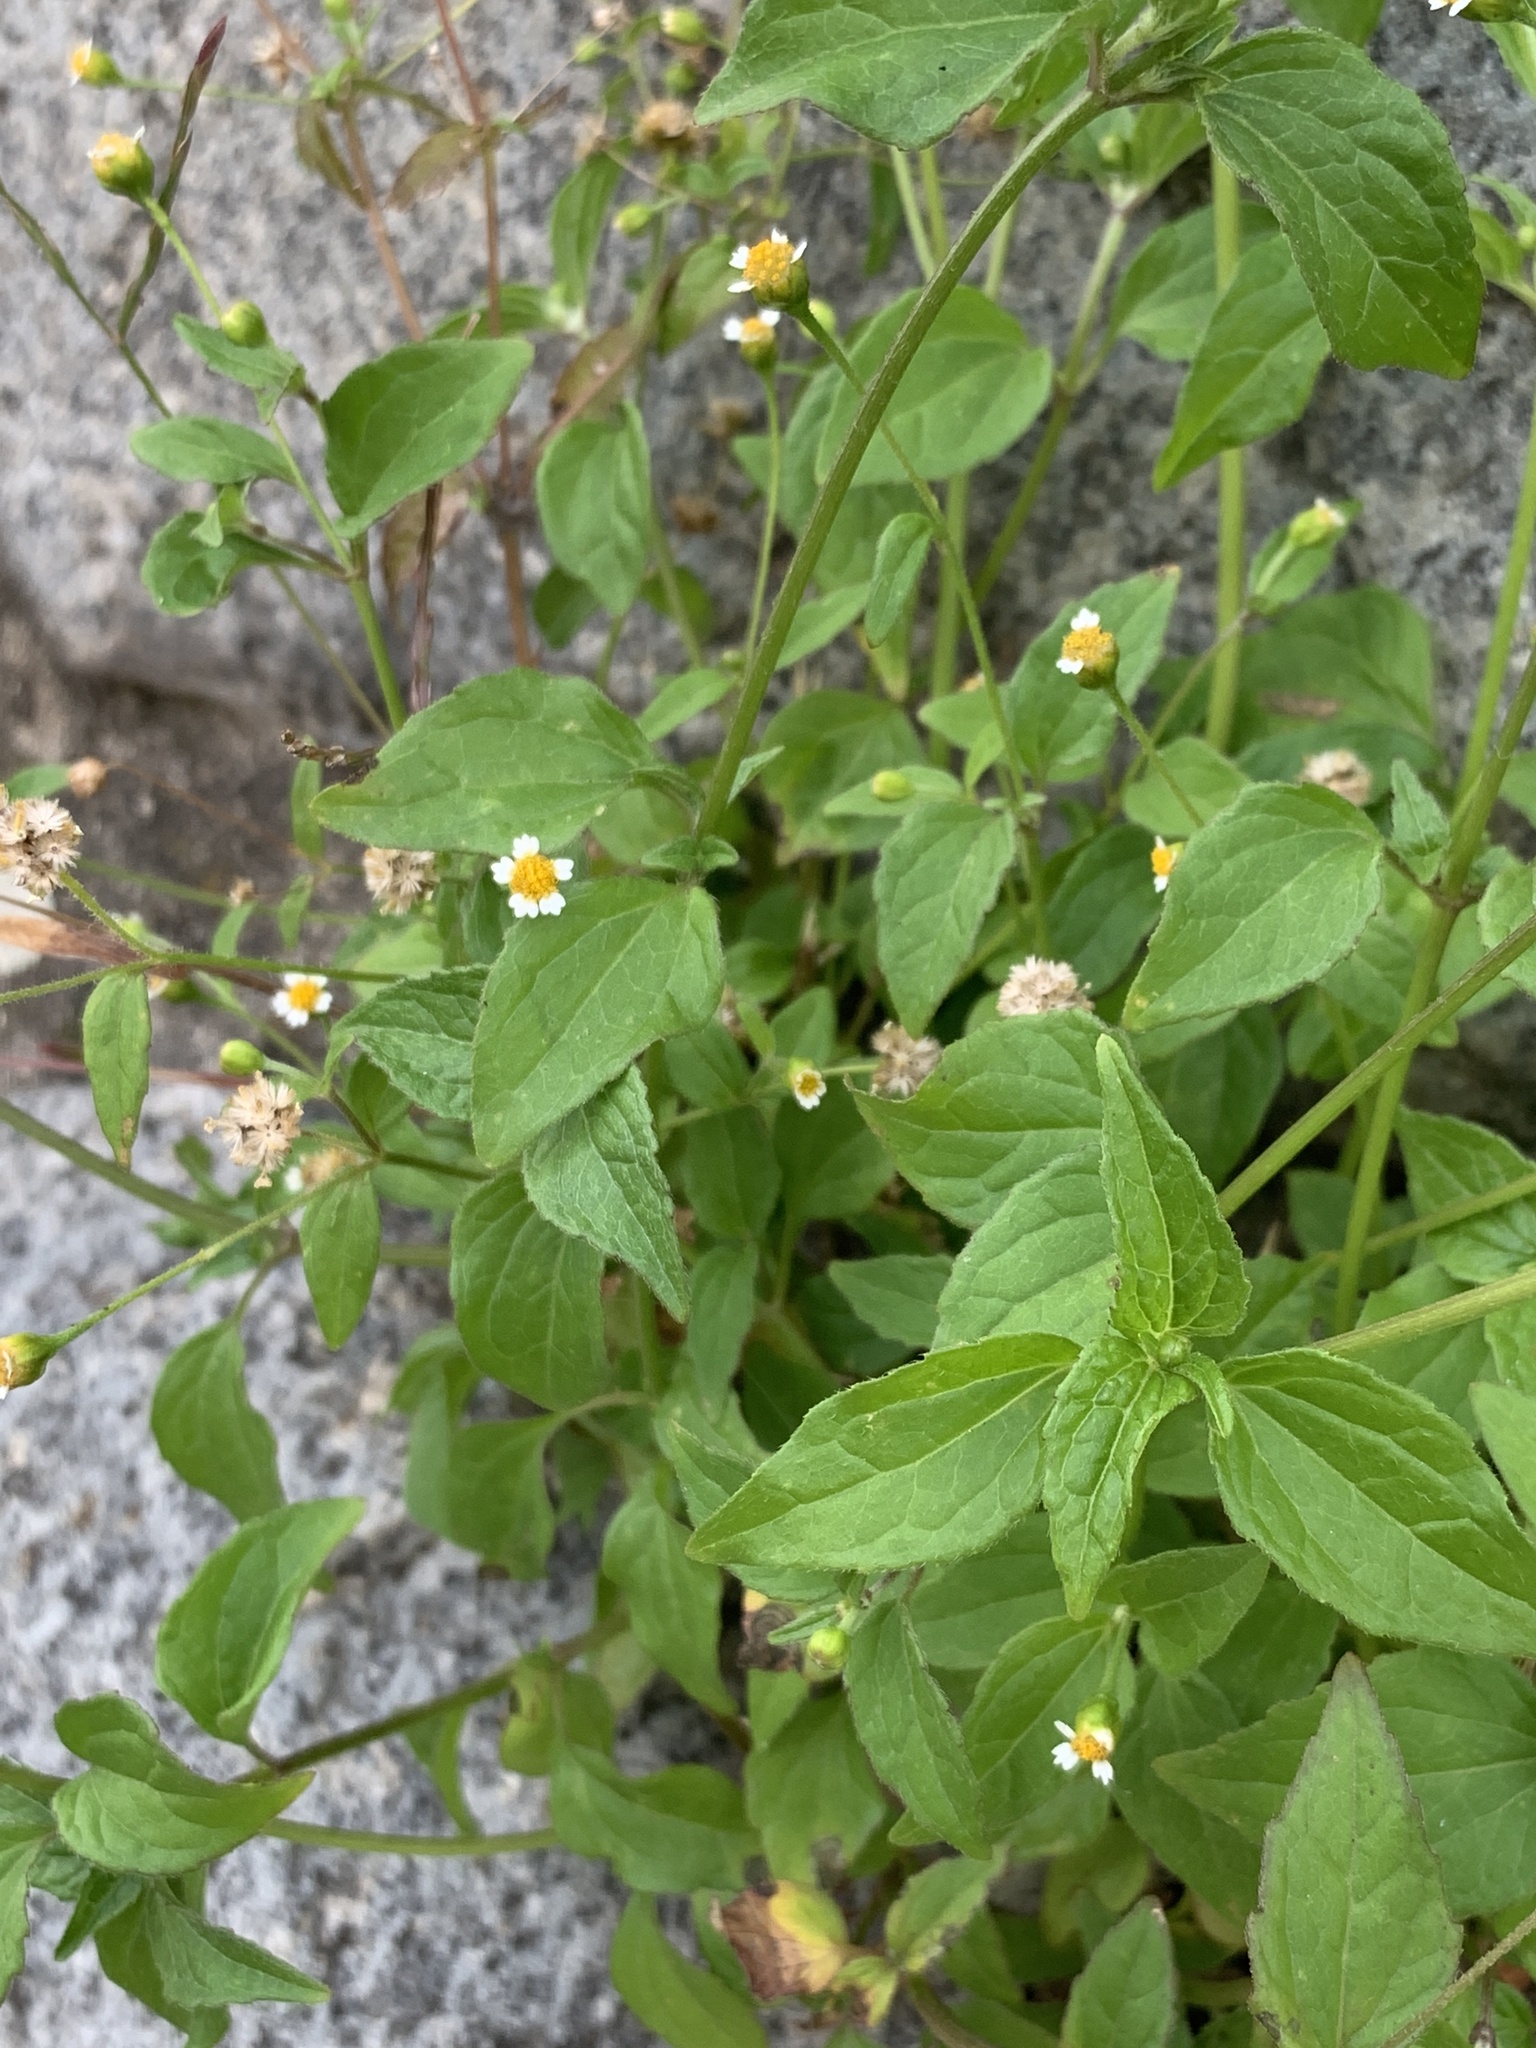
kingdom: Plantae
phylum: Tracheophyta
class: Magnoliopsida
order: Asterales
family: Asteraceae
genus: Galinsoga
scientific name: Galinsoga parviflora
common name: Gallant soldier
